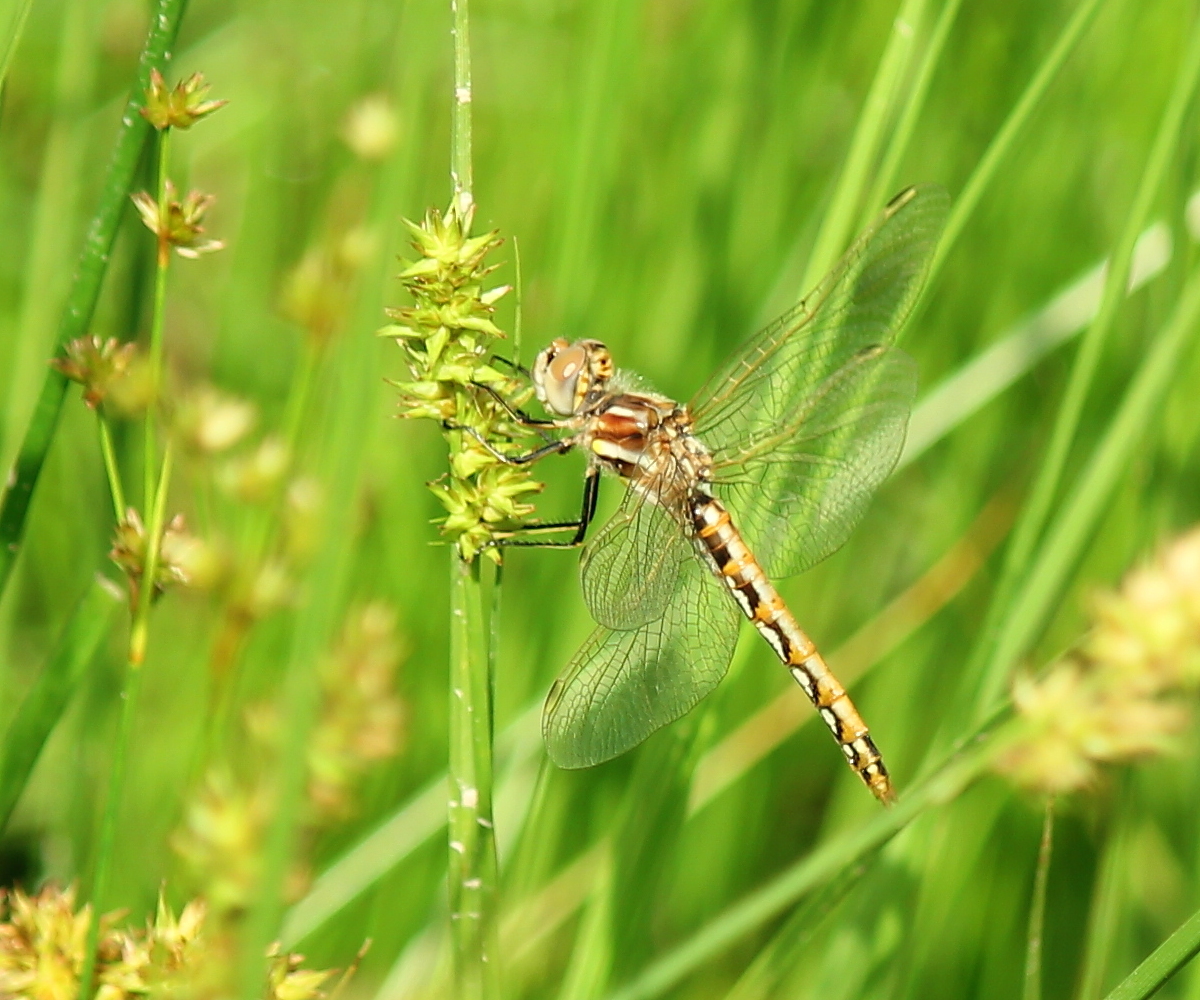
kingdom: Animalia
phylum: Arthropoda
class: Insecta
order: Odonata
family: Libellulidae
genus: Sympetrum
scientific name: Sympetrum corruptum
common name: Variegated meadowhawk
